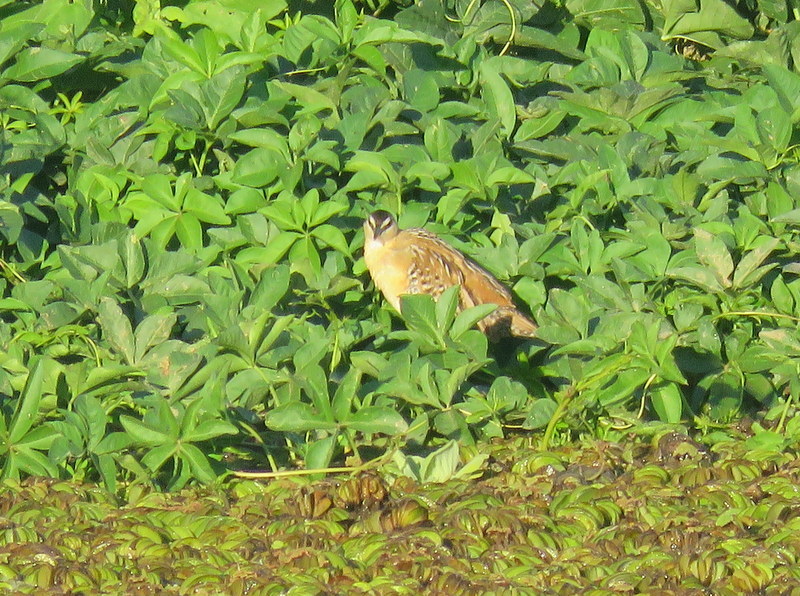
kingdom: Animalia
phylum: Chordata
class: Aves
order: Gruiformes
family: Rallidae
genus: Porzana
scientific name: Porzana flaviventer
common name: Yellow-breasted crake
